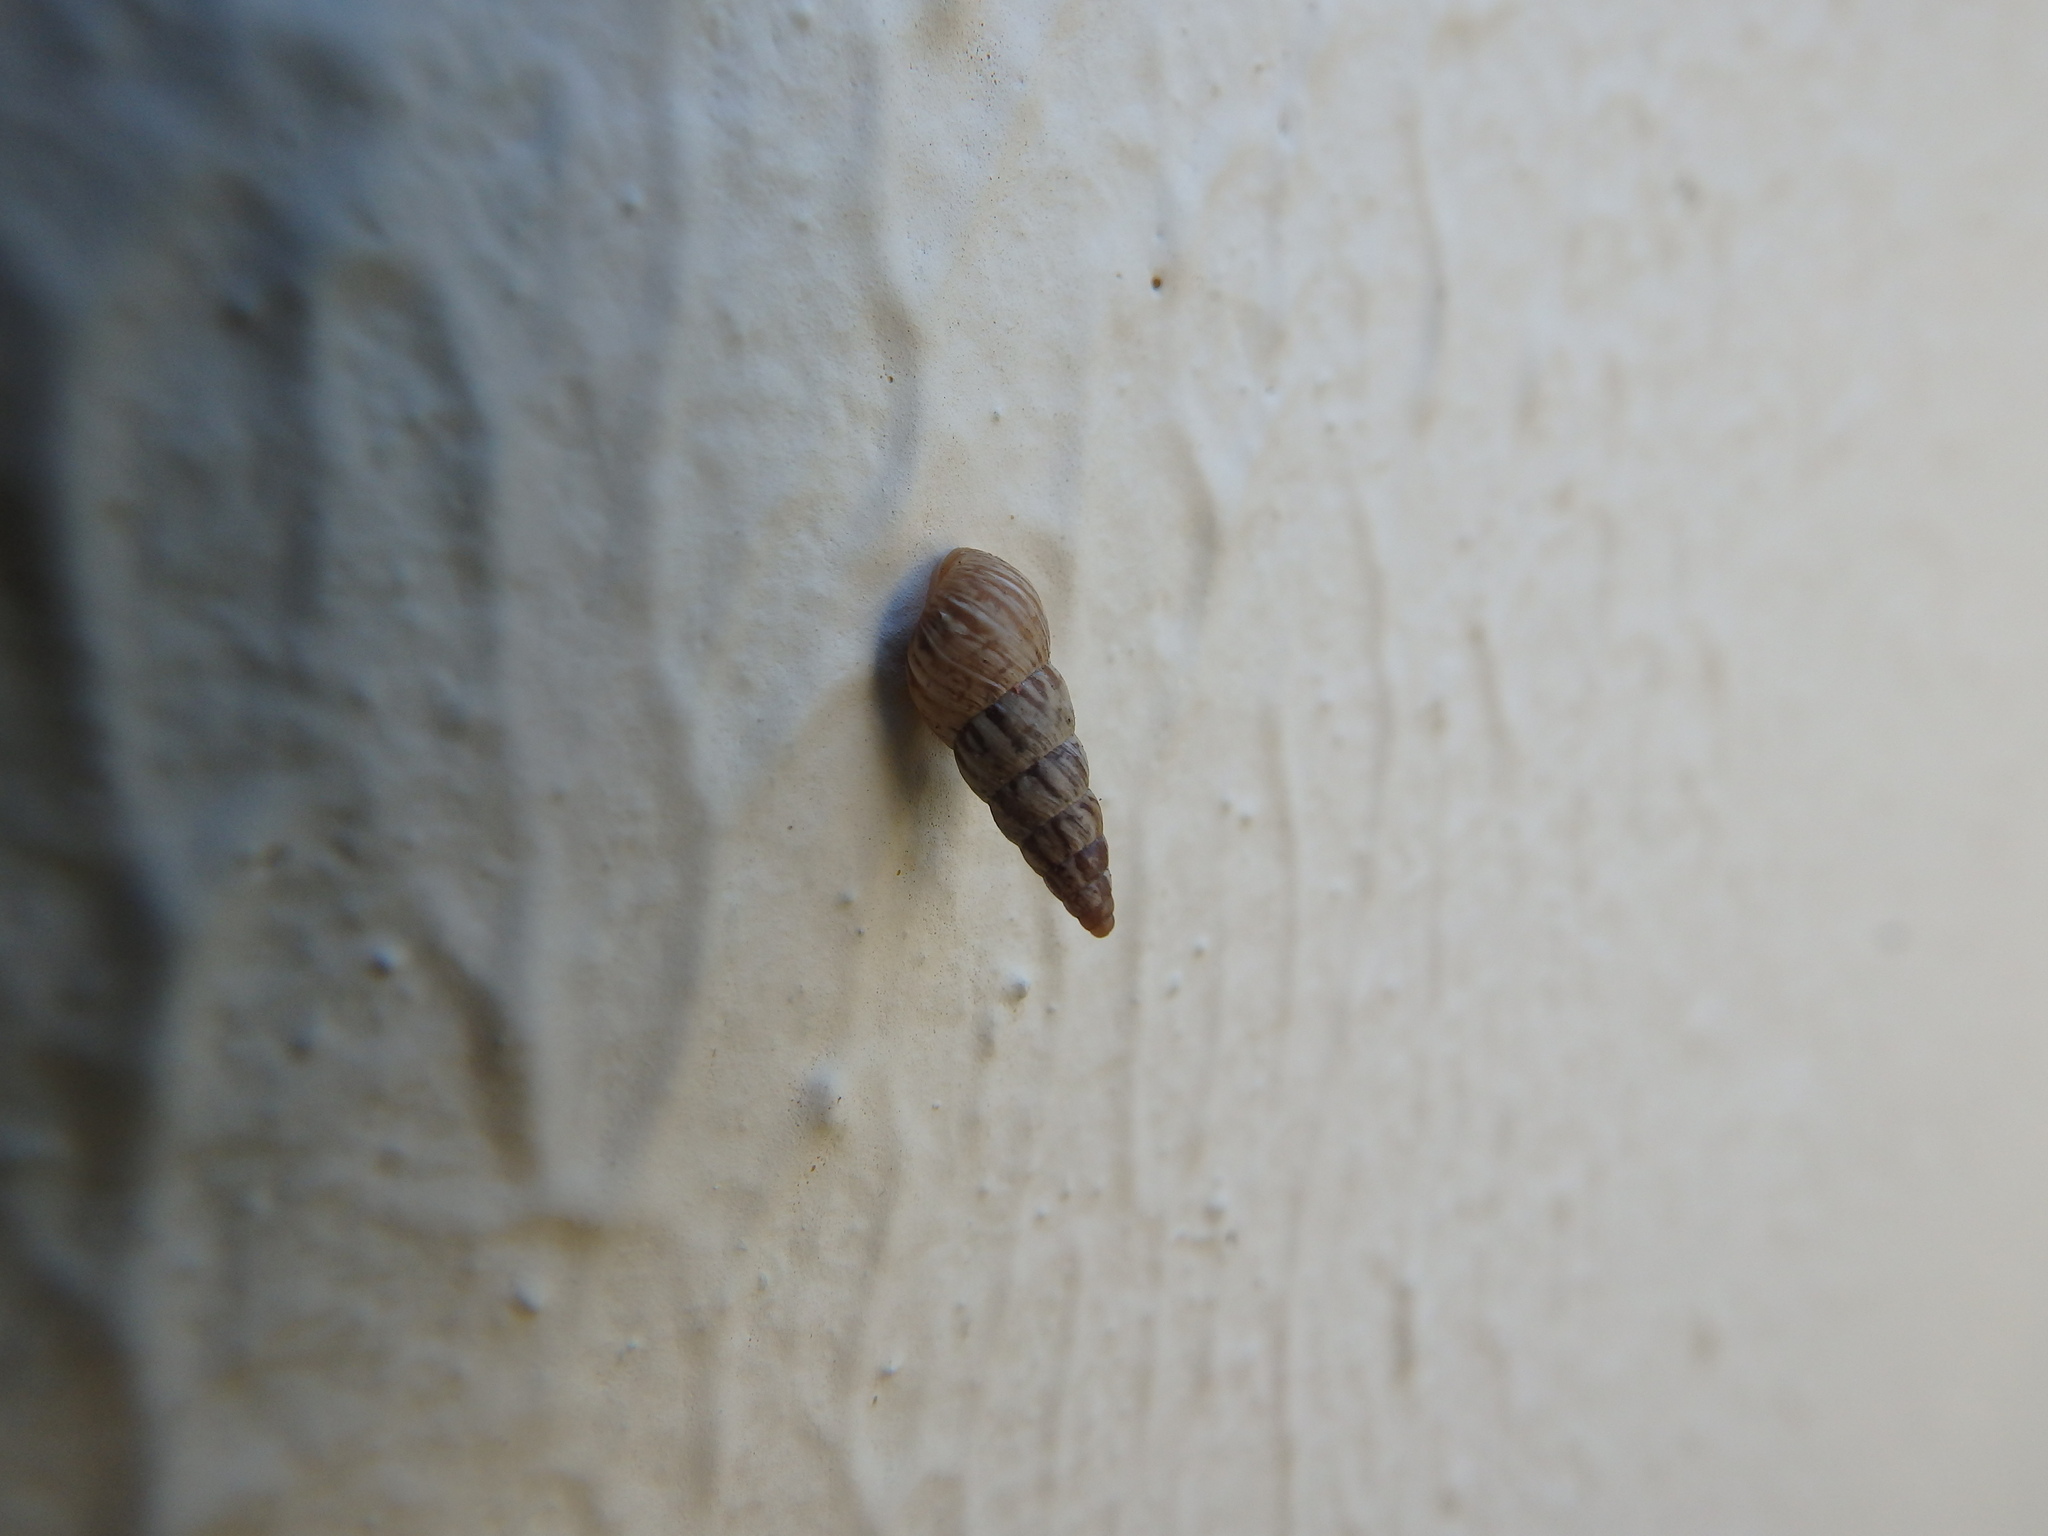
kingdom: Animalia
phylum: Mollusca
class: Gastropoda
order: Stylommatophora
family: Geomitridae
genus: Cochlicella
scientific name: Cochlicella acuta
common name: Pointed snail
